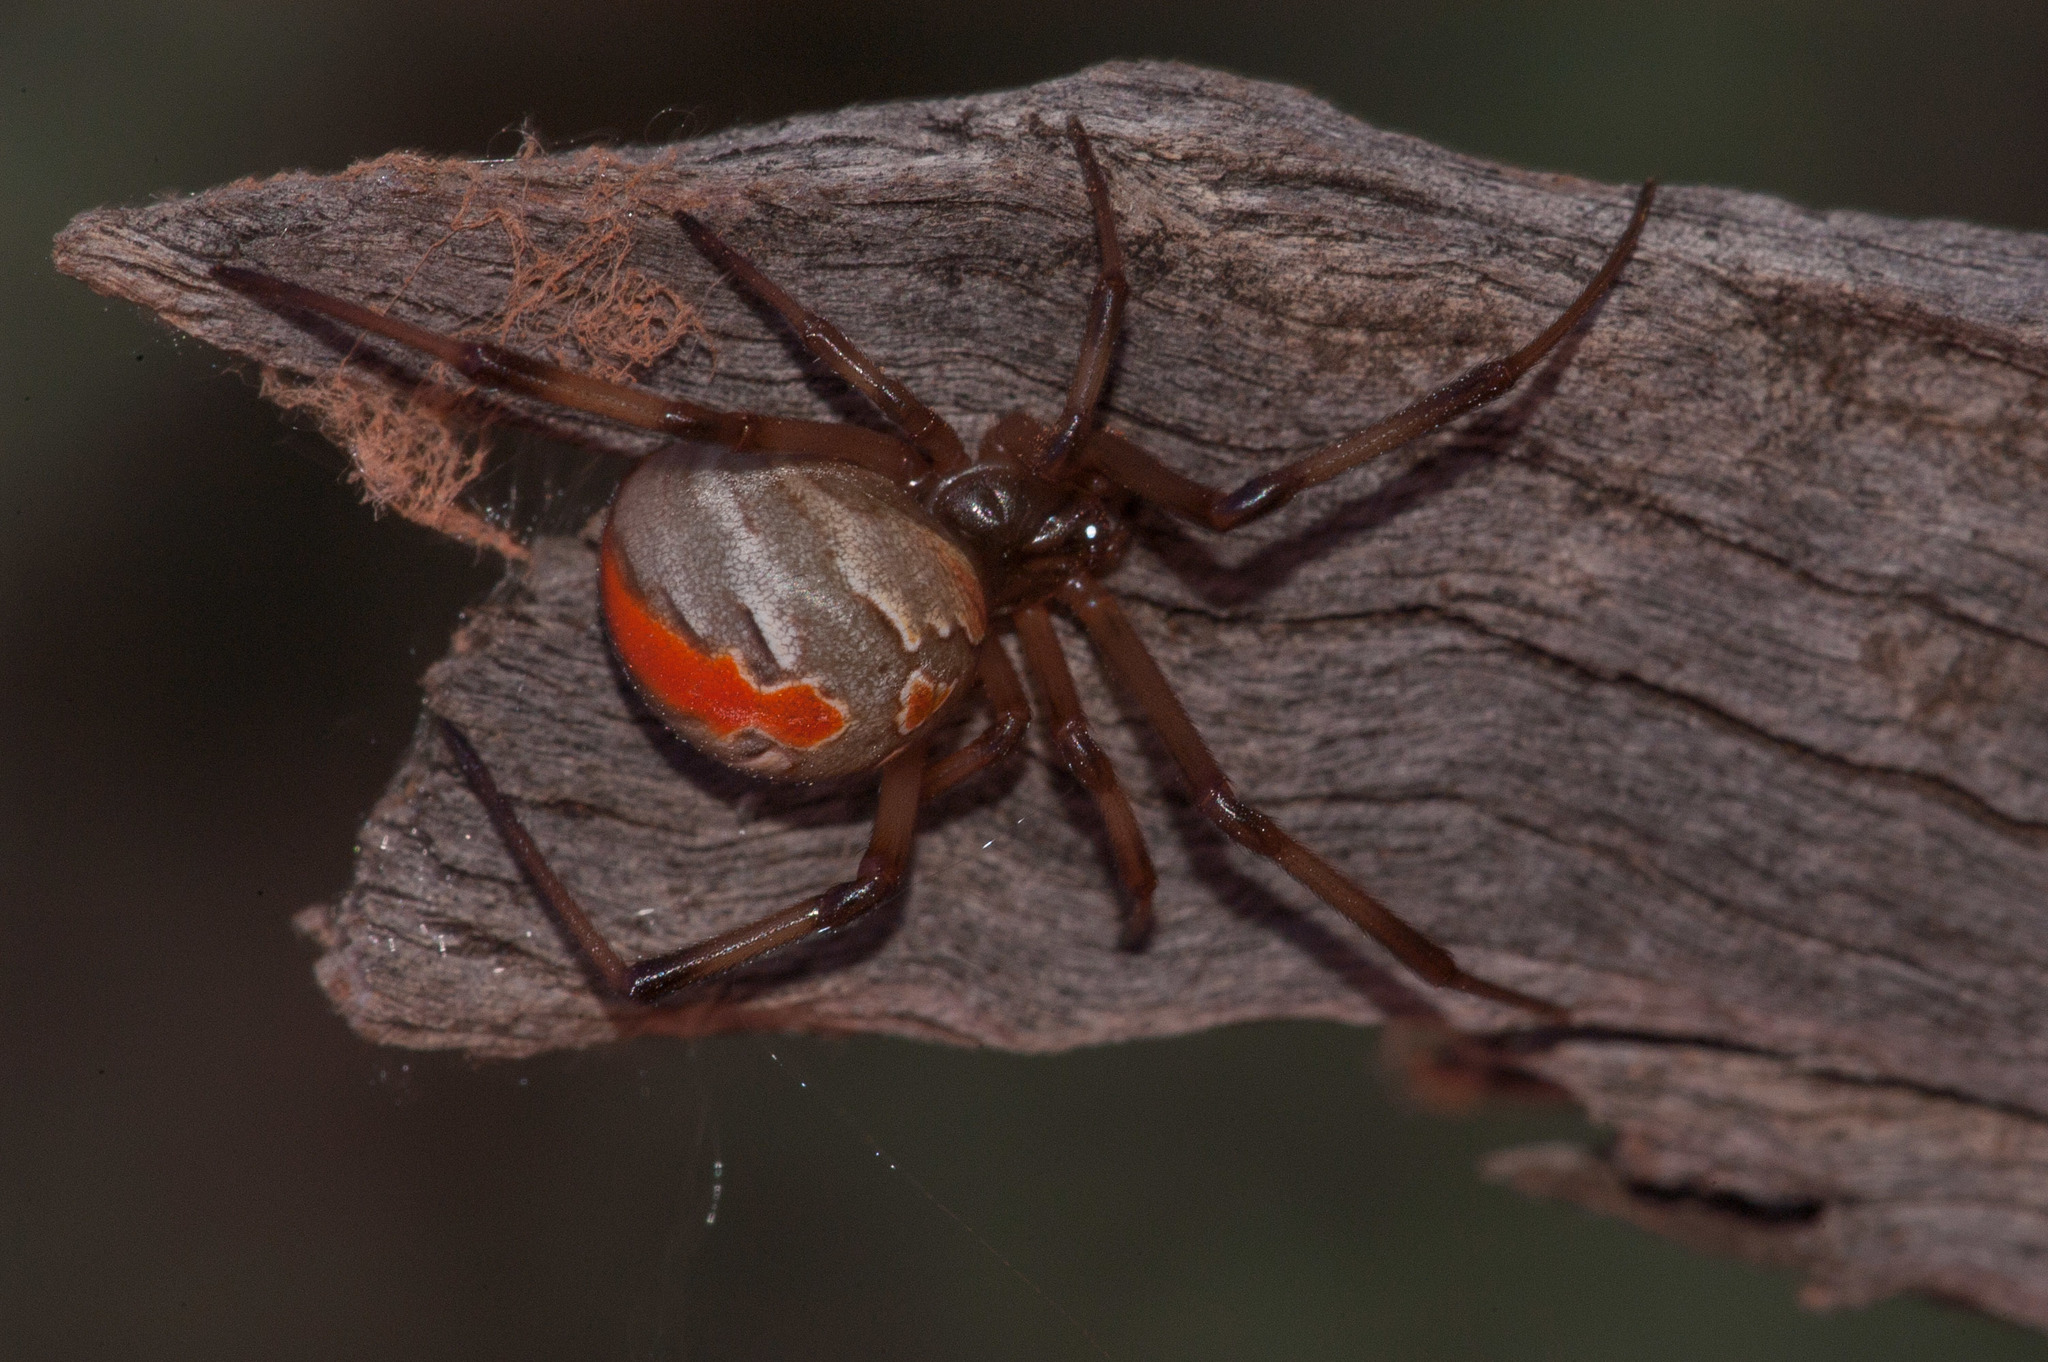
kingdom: Animalia
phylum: Arthropoda
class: Arachnida
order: Araneae
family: Theridiidae
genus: Latrodectus
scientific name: Latrodectus hasselti
